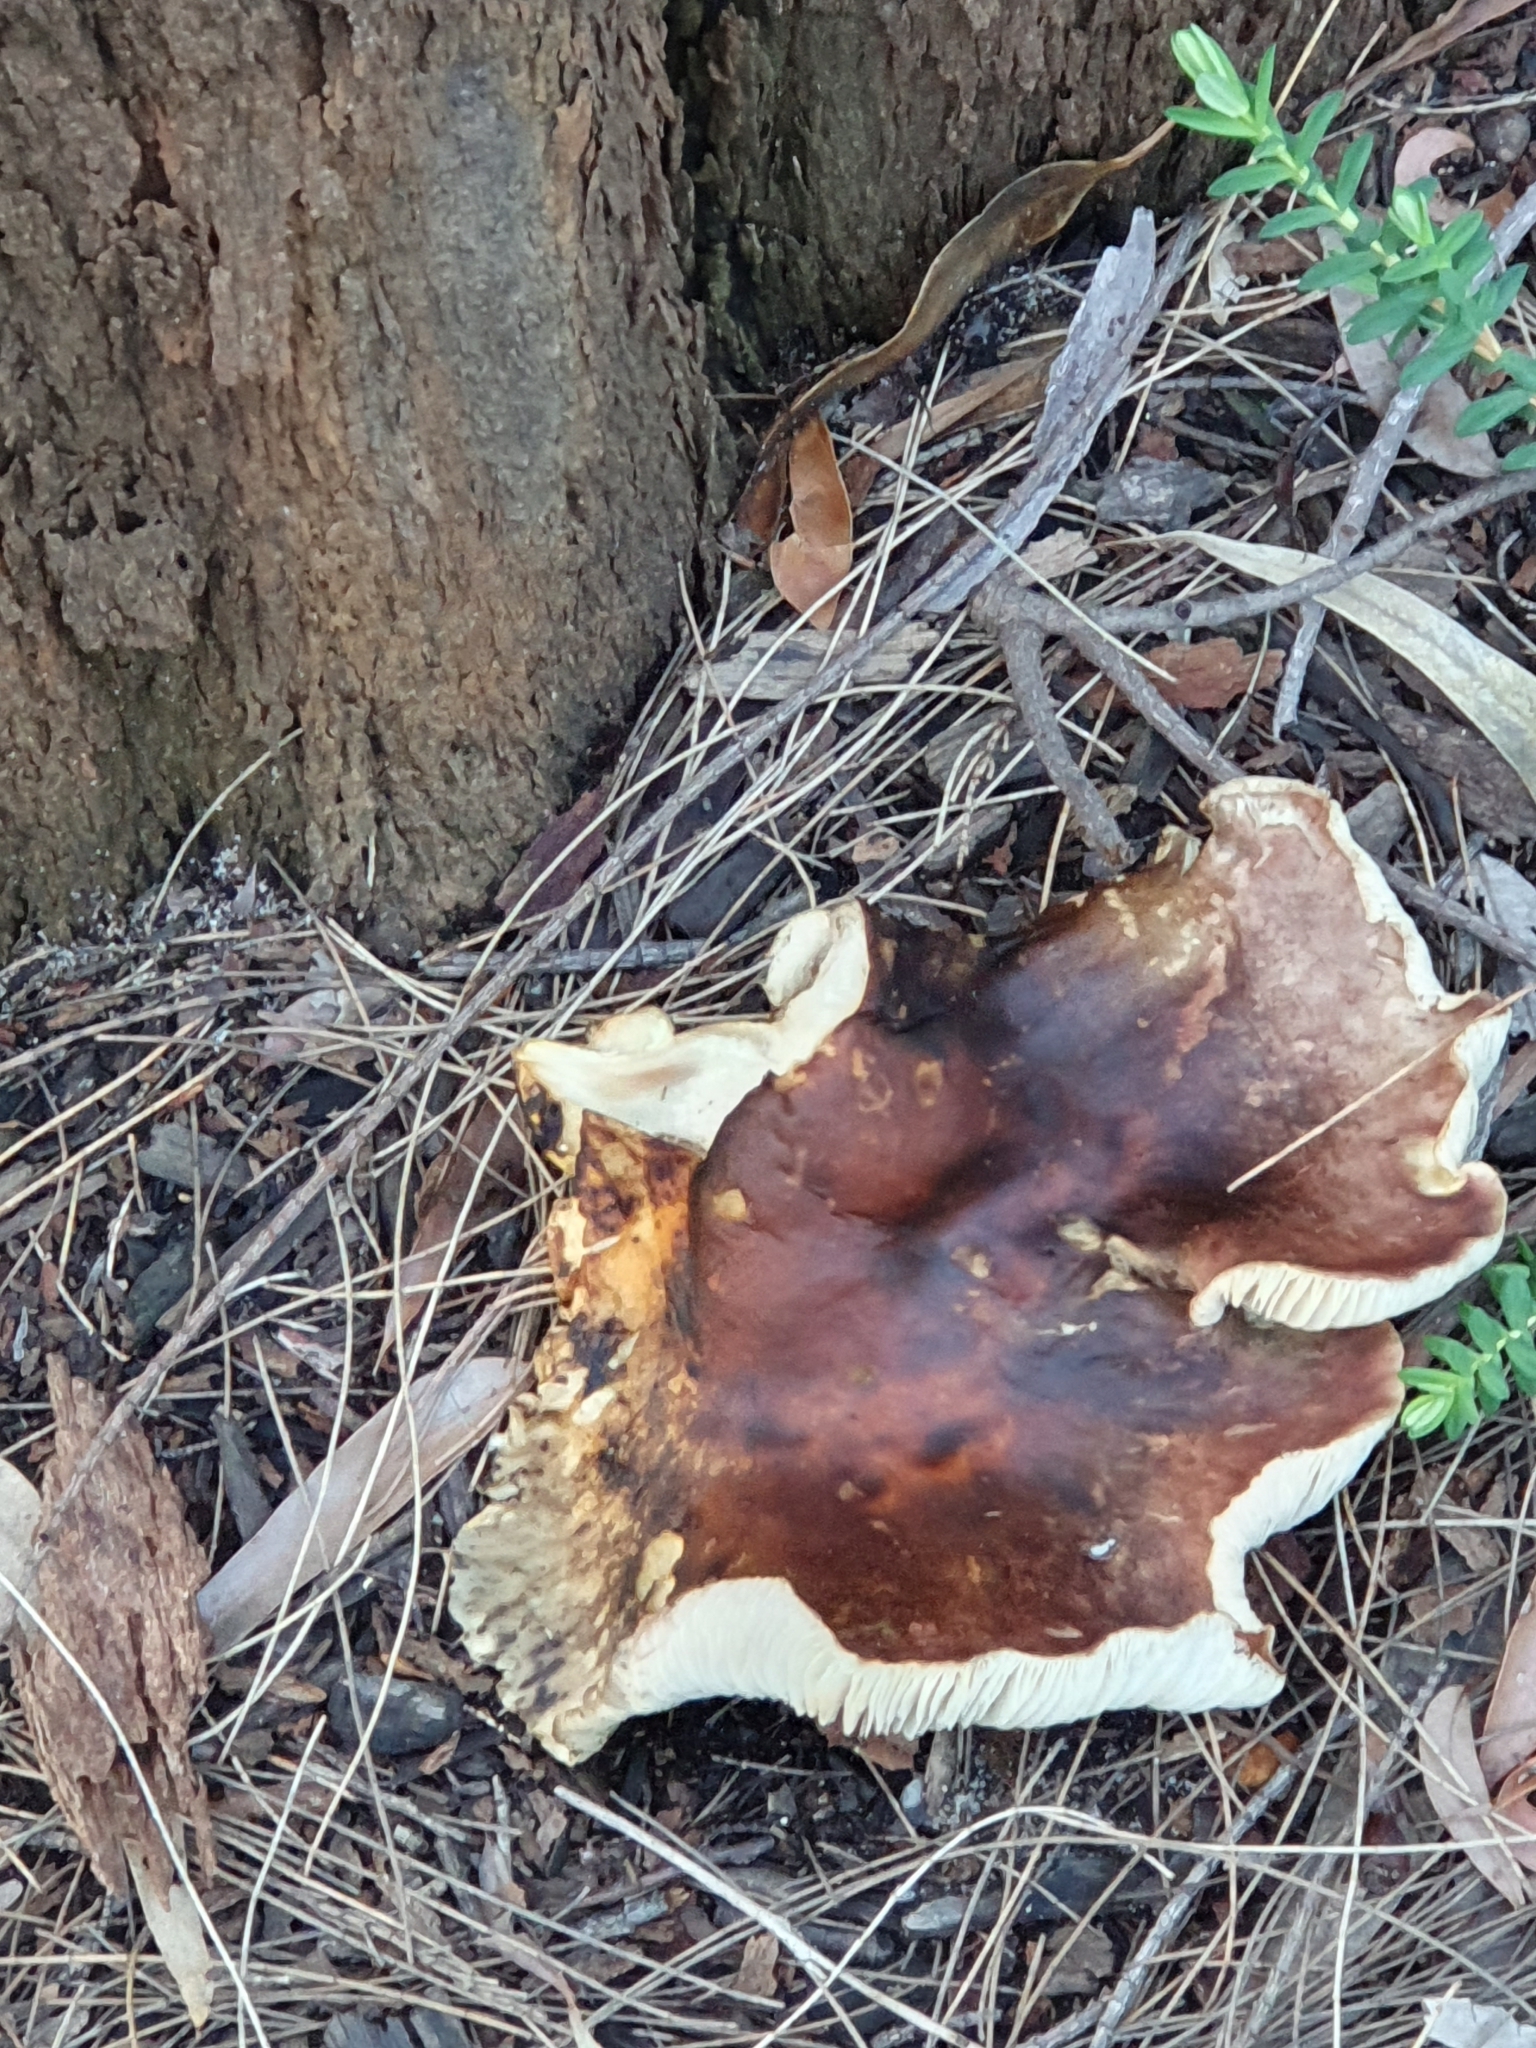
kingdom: Fungi
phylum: Basidiomycota
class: Agaricomycetes
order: Agaricales
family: Omphalotaceae
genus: Omphalotus
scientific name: Omphalotus nidiformis
